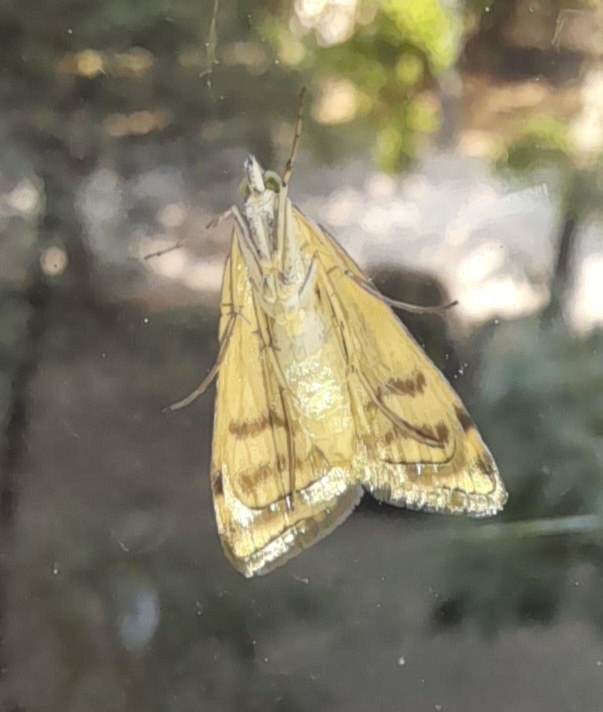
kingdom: Animalia
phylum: Arthropoda
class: Insecta
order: Lepidoptera
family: Crambidae
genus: Loxostege
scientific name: Loxostege sticticalis
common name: Crambid moth
